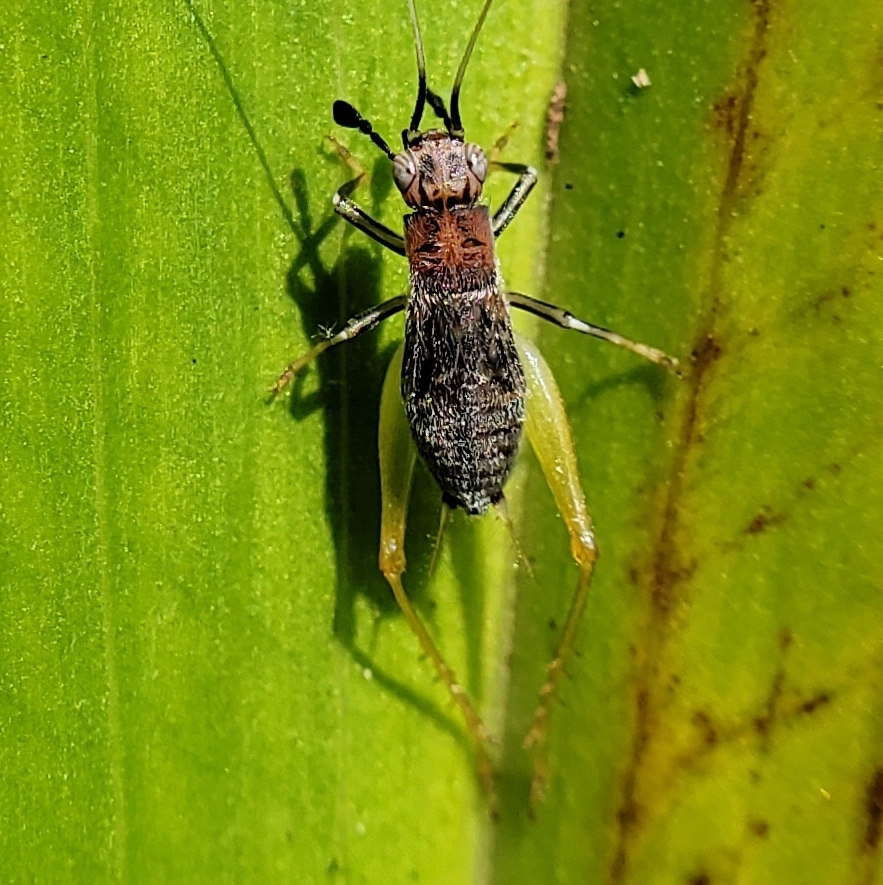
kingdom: Animalia
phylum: Arthropoda
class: Insecta
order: Orthoptera
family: Trigonidiidae
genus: Phyllopalpus
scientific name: Phyllopalpus pulchellus
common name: Handsome trig
